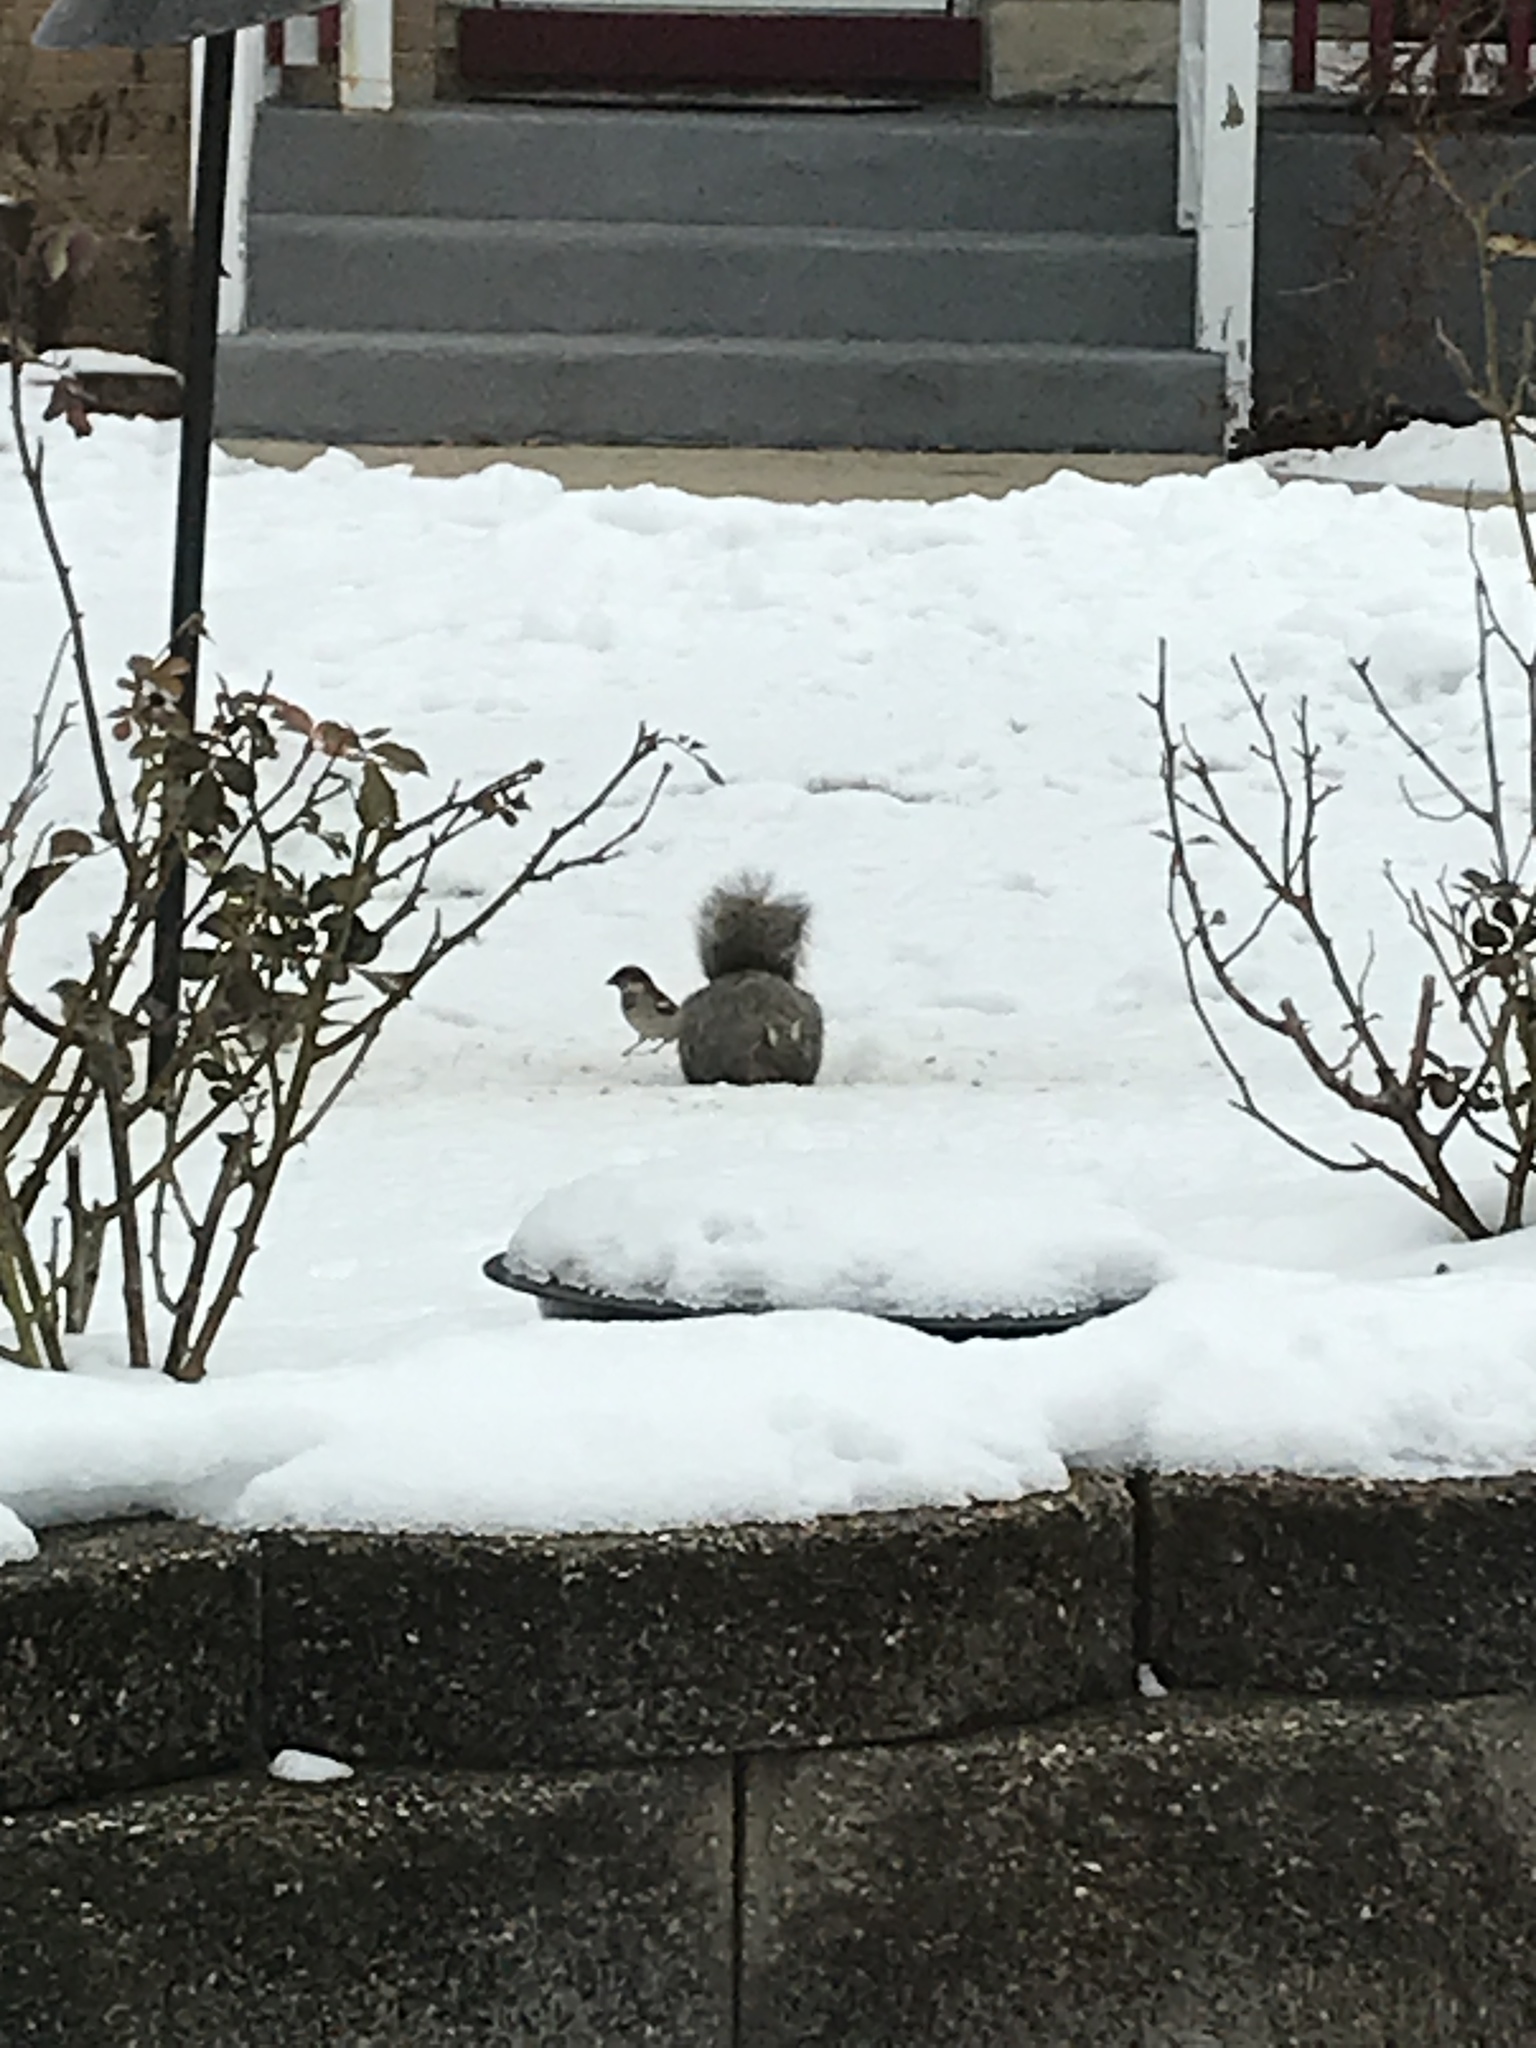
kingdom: Animalia
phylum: Chordata
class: Mammalia
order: Rodentia
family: Sciuridae
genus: Sciurus
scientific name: Sciurus carolinensis
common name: Eastern gray squirrel
